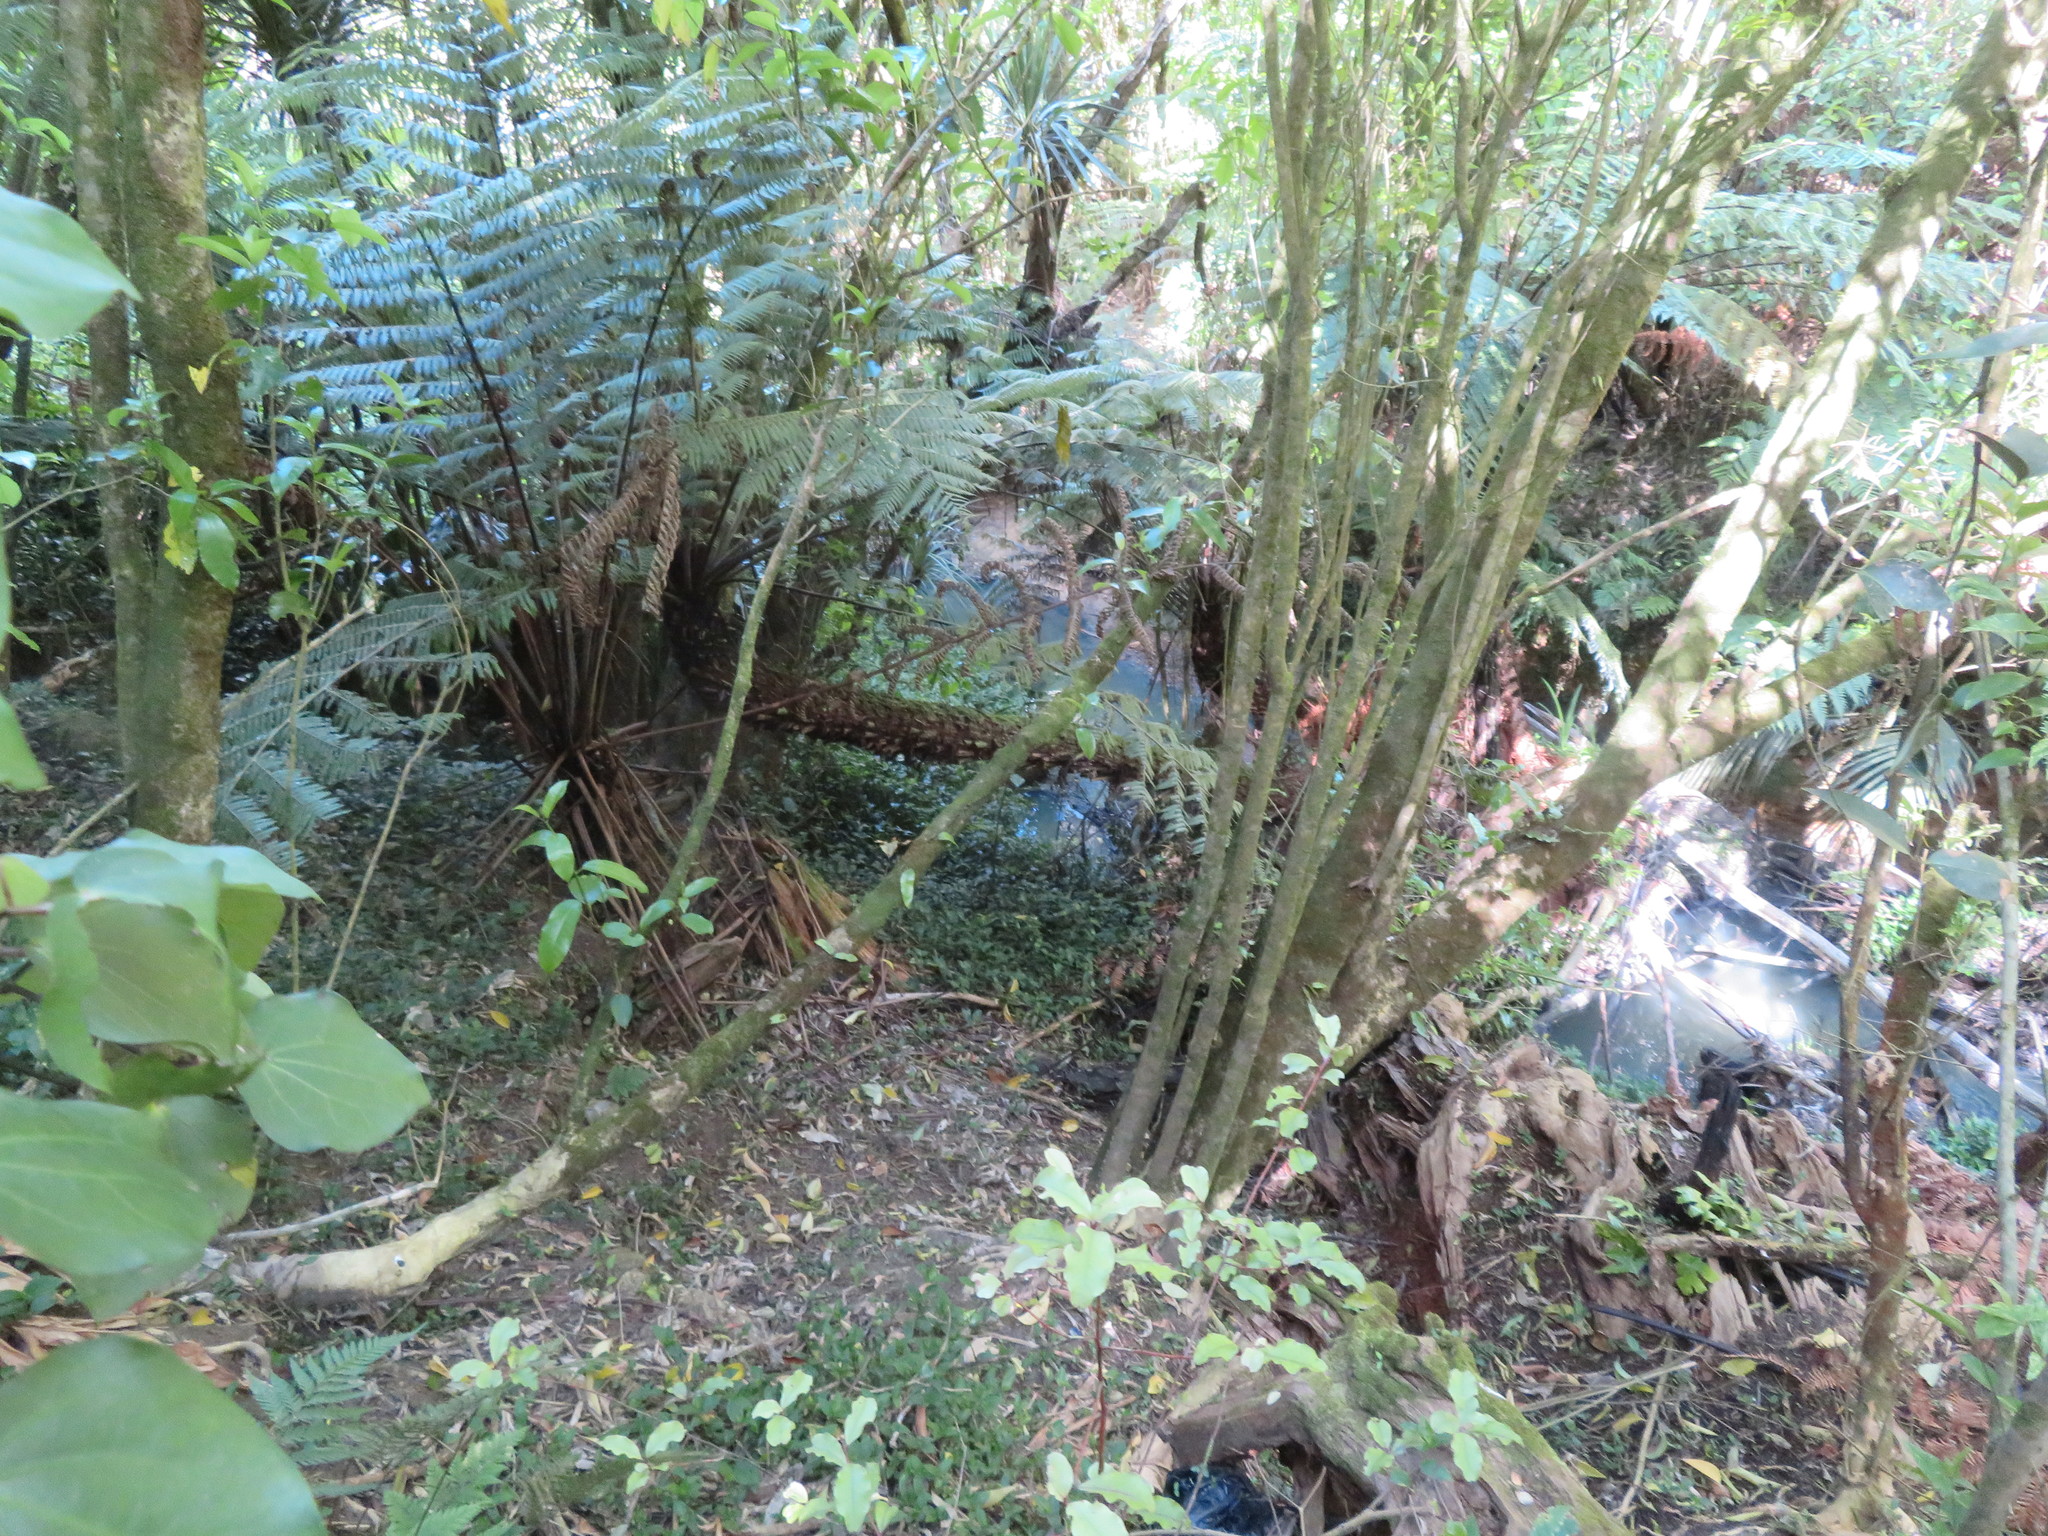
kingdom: Plantae
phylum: Tracheophyta
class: Magnoliopsida
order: Ericales
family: Primulaceae
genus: Myrsine
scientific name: Myrsine australis
